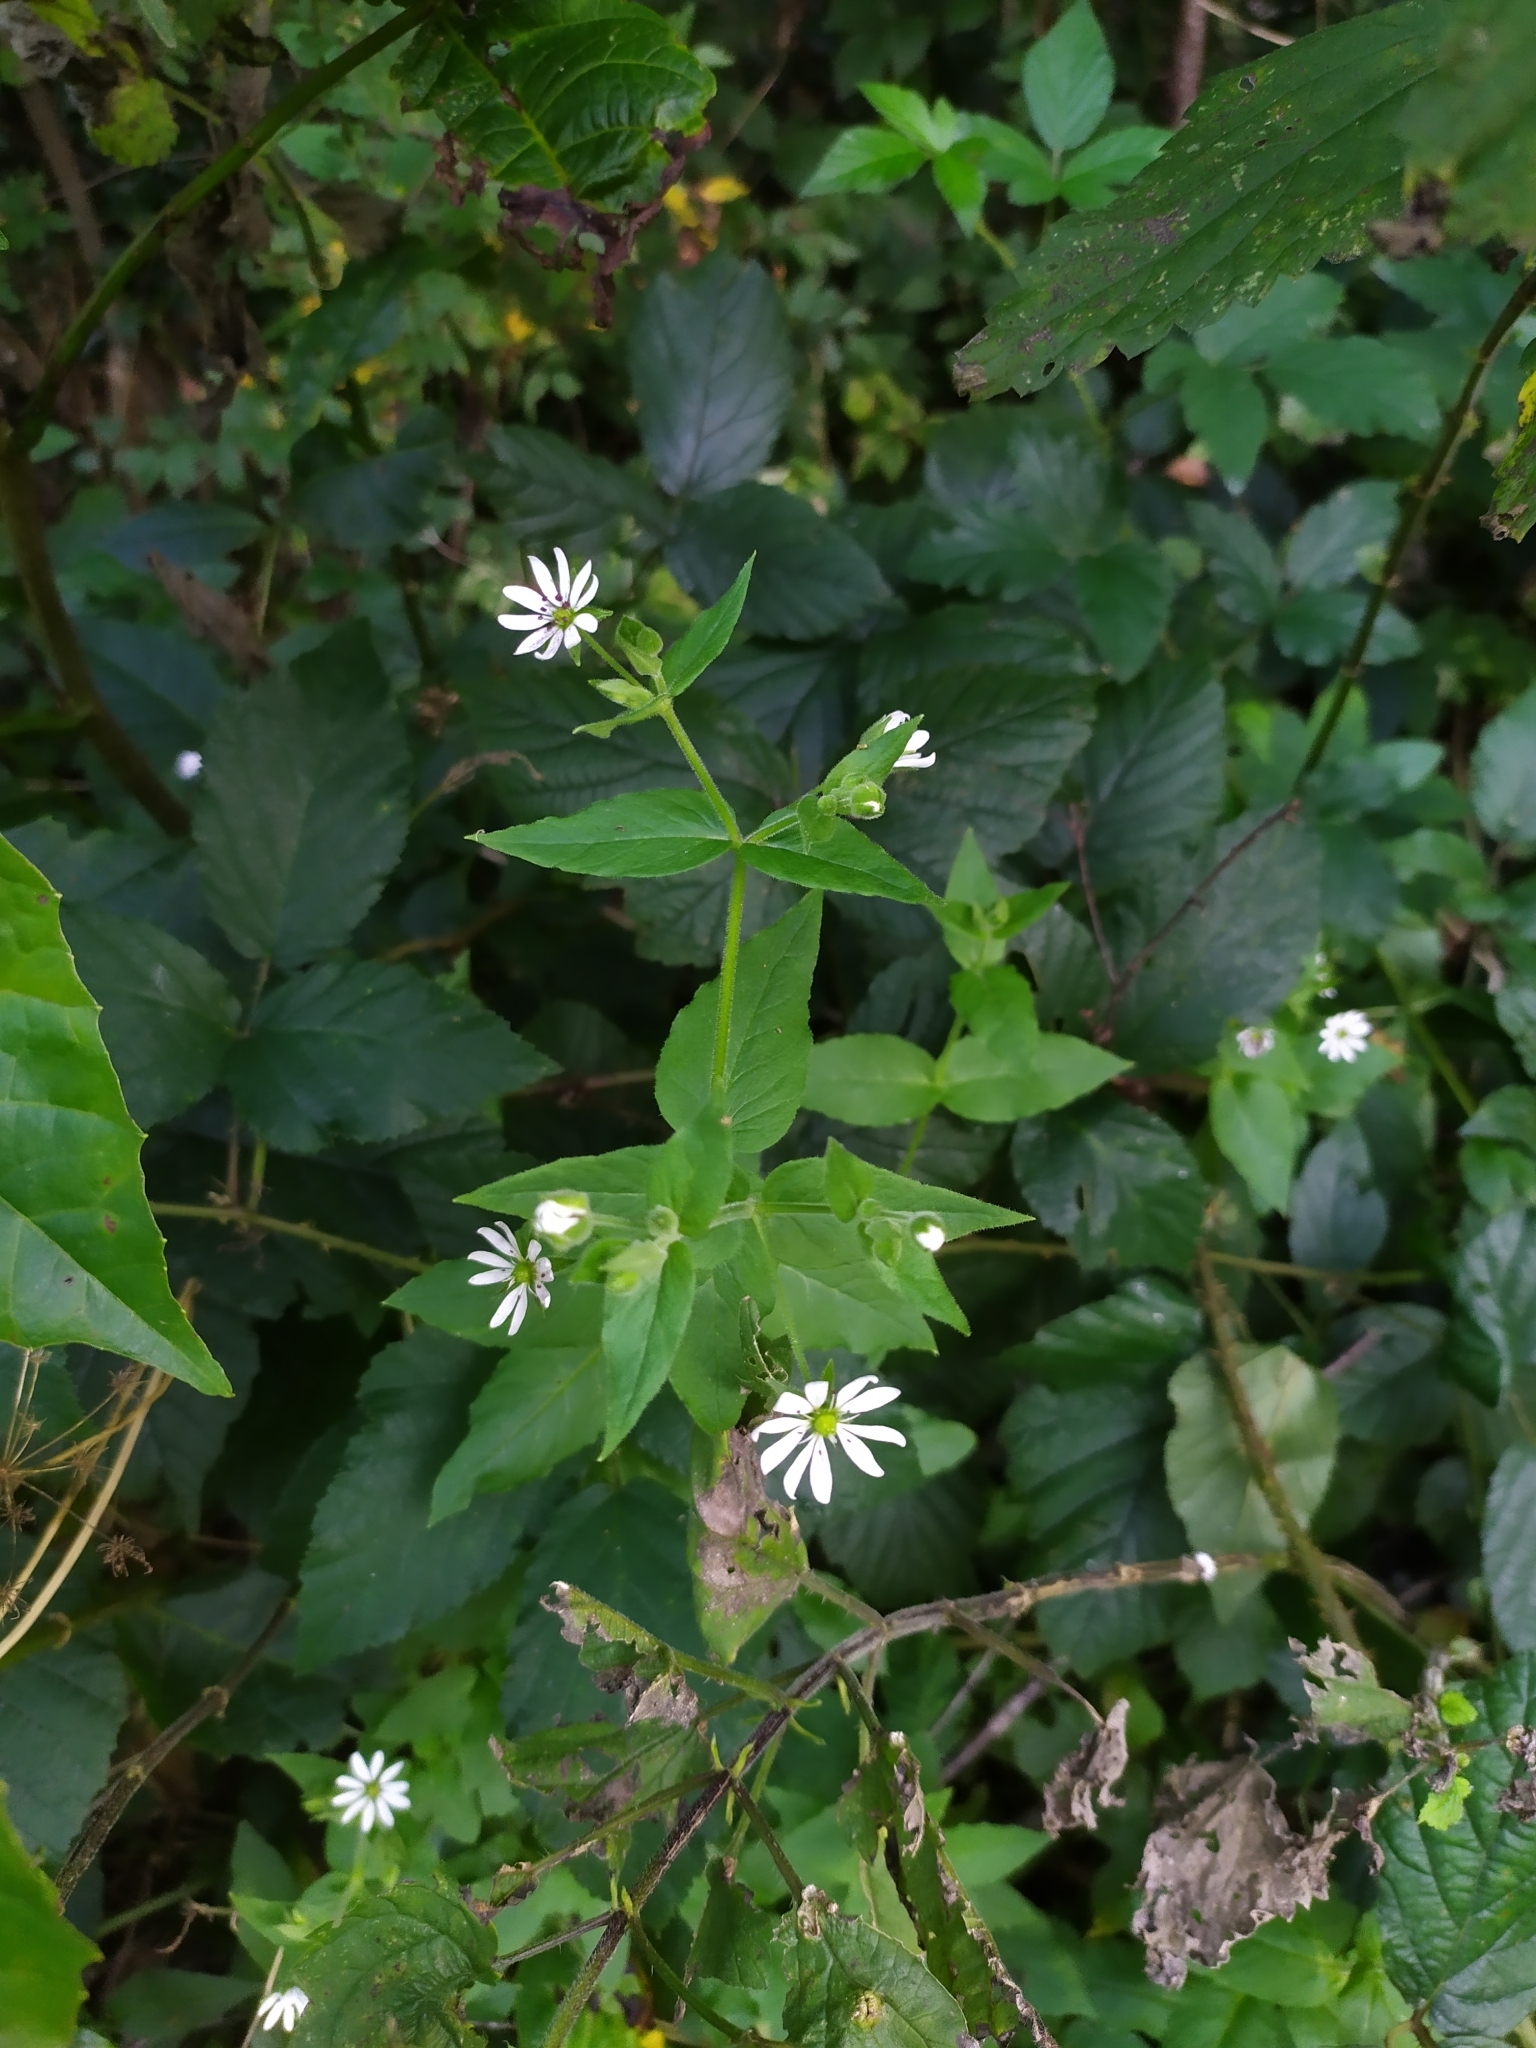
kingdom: Plantae
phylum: Tracheophyta
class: Magnoliopsida
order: Caryophyllales
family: Caryophyllaceae
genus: Stellaria
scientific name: Stellaria aquatica
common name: Water chickweed
